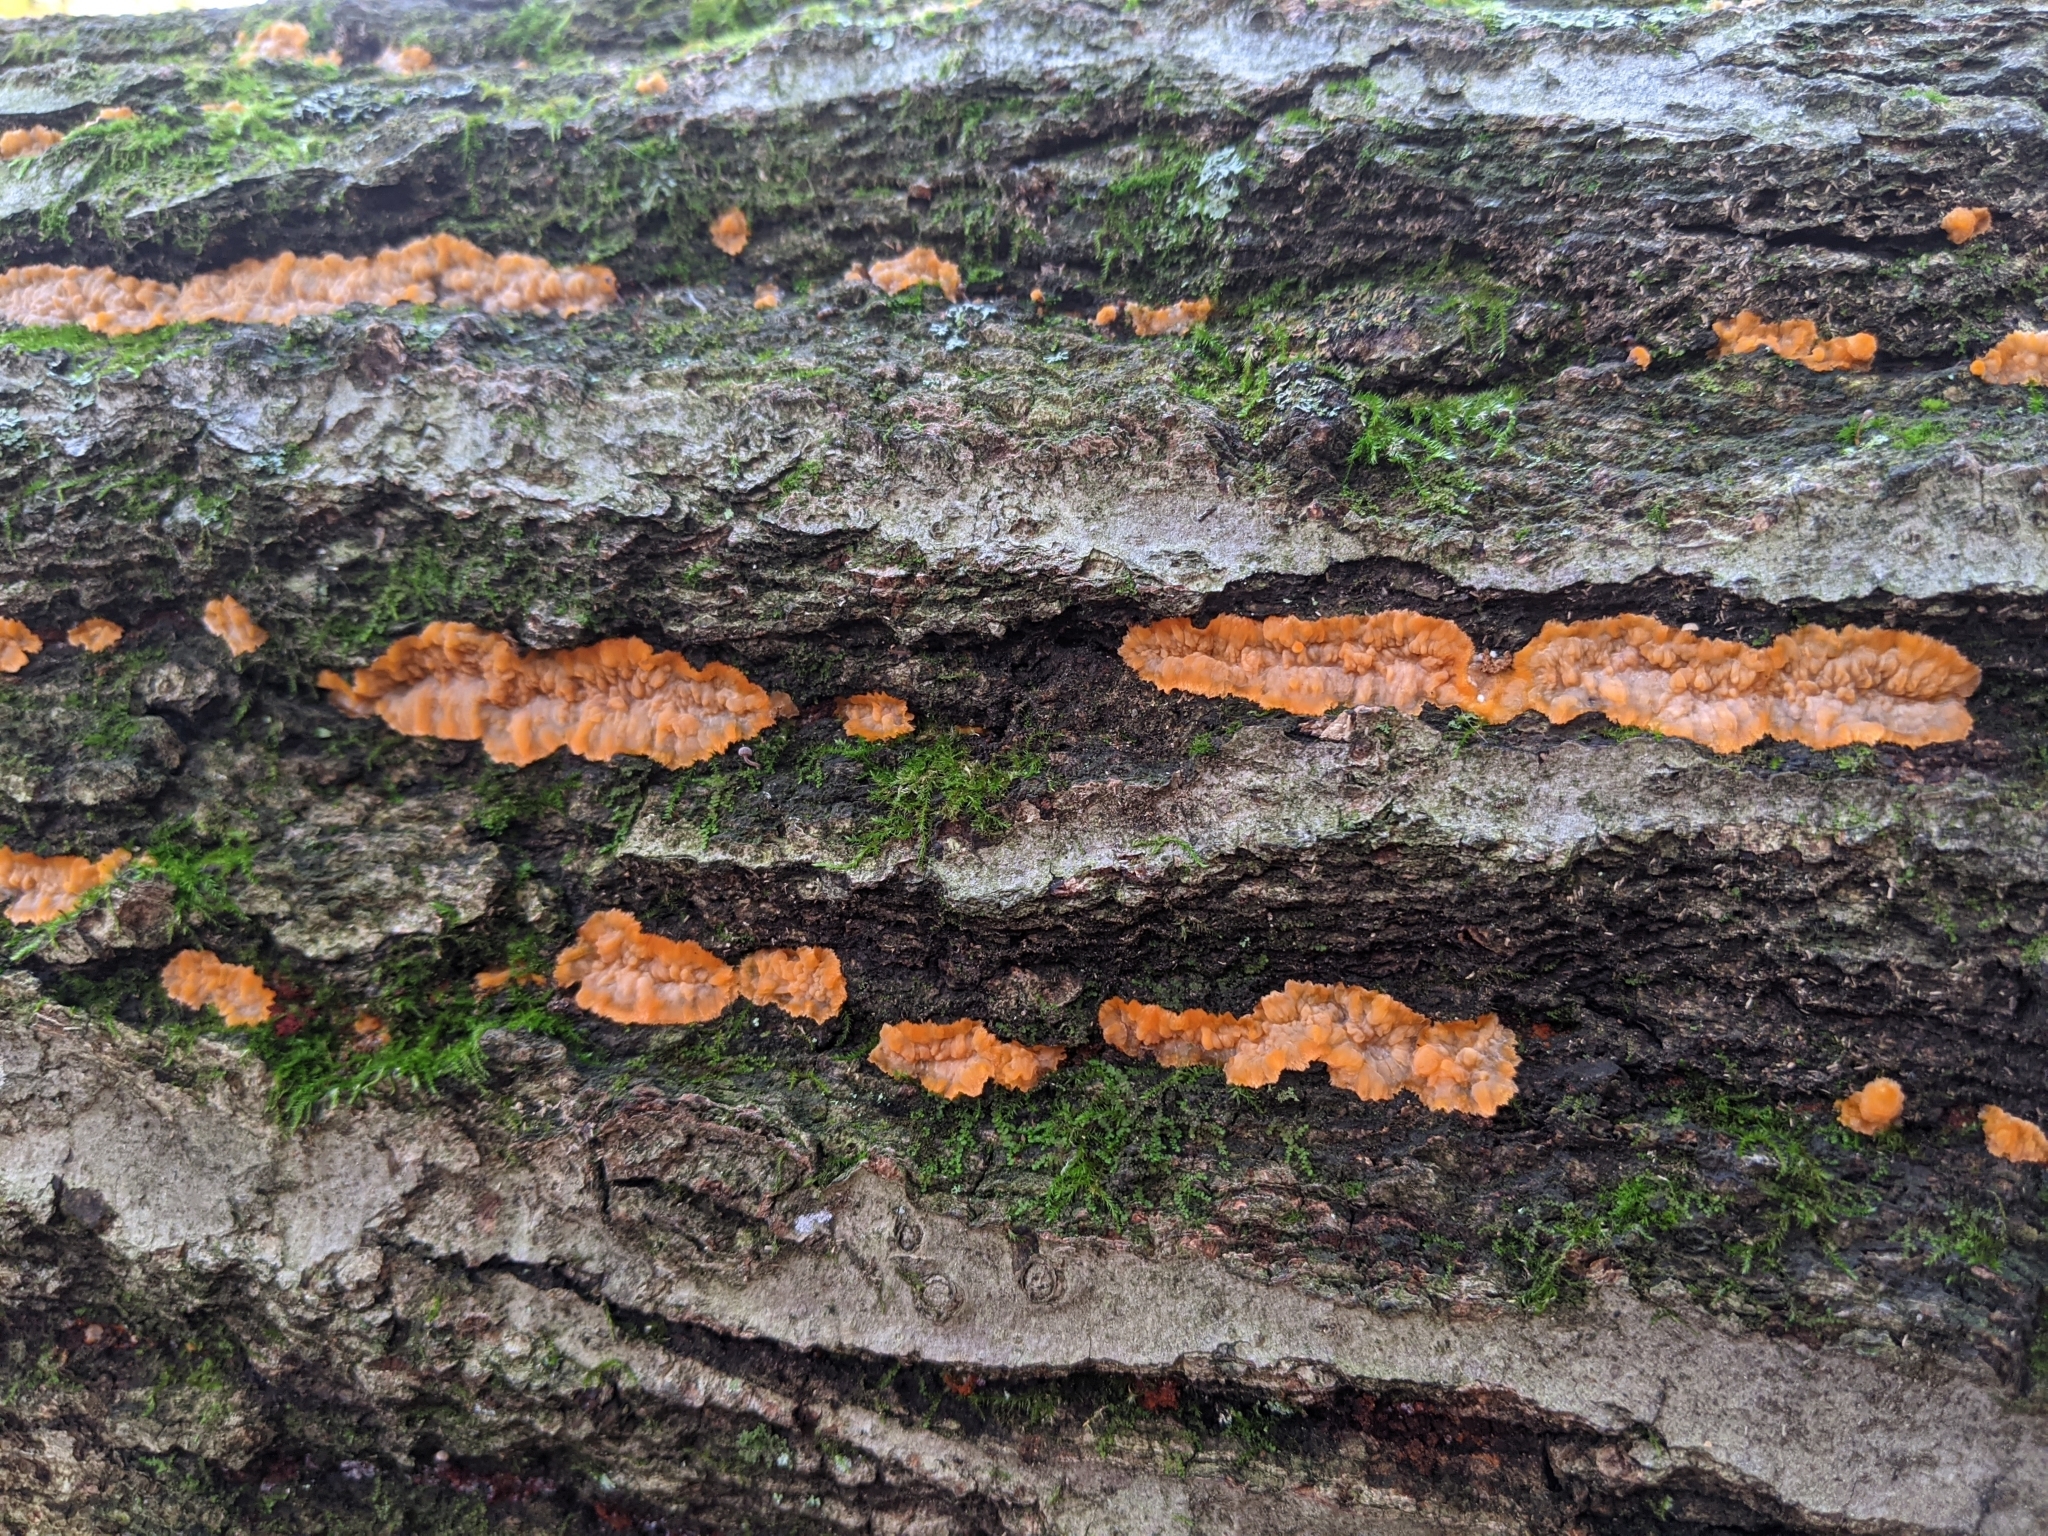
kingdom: Fungi
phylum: Basidiomycota
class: Agaricomycetes
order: Polyporales
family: Meruliaceae
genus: Phlebia
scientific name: Phlebia radiata
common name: Wrinkled crust
